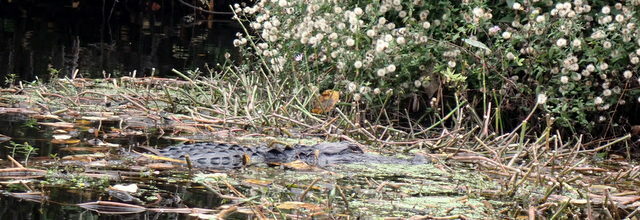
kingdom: Animalia
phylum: Chordata
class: Crocodylia
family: Alligatoridae
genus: Alligator
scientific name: Alligator mississippiensis
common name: American alligator
